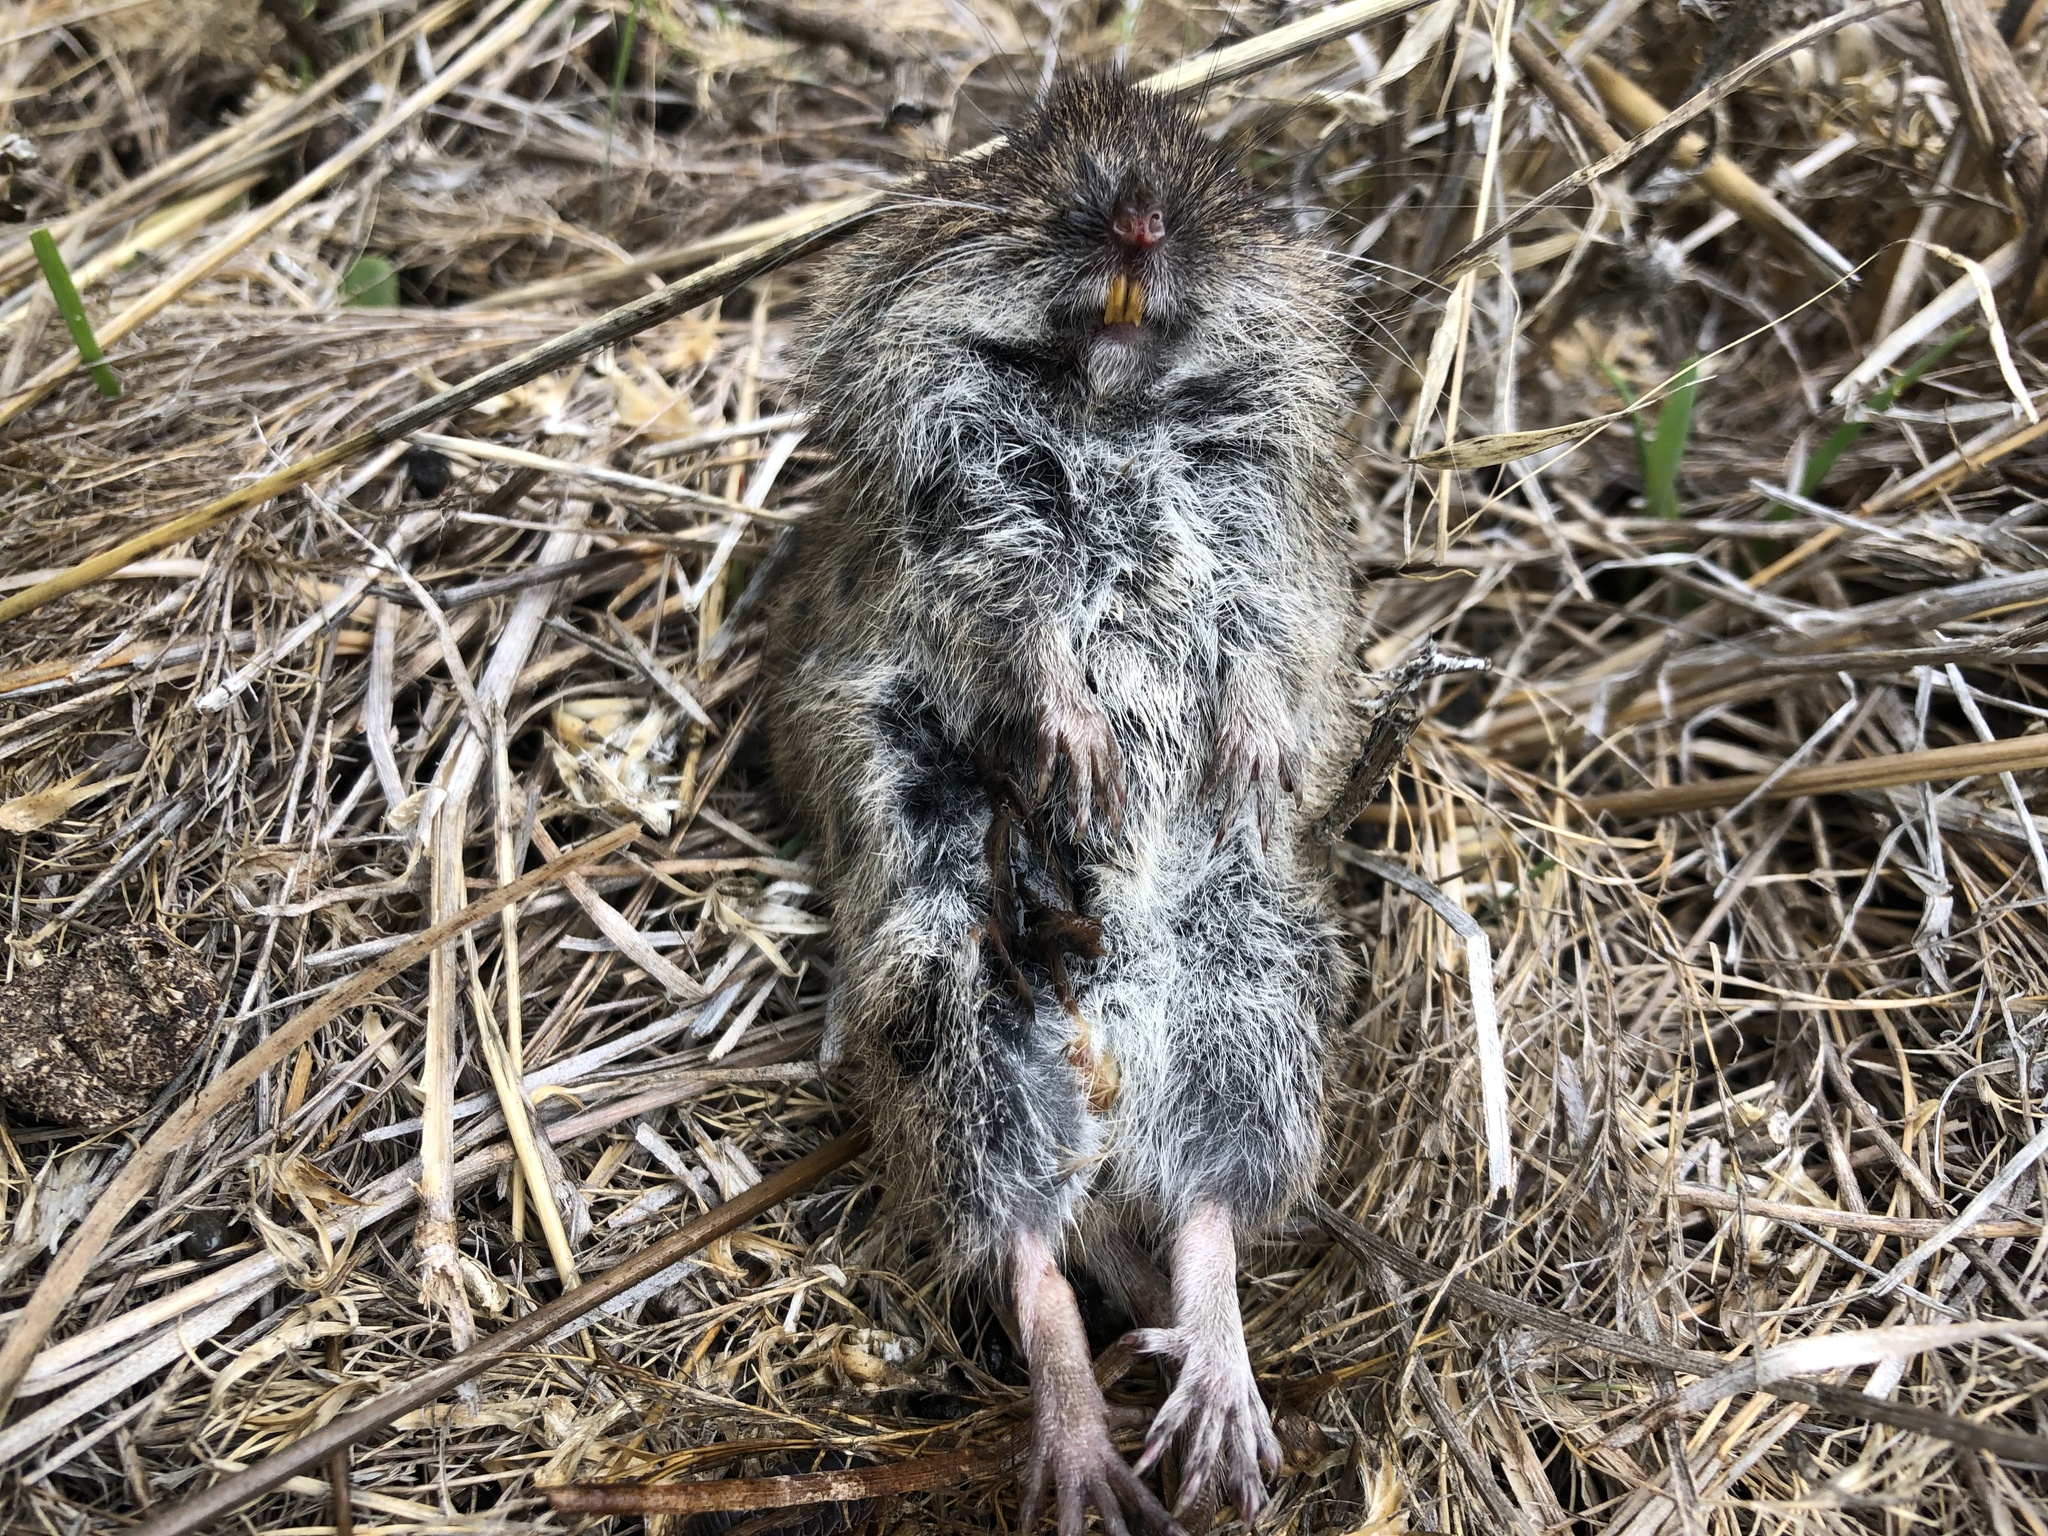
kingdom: Animalia
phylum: Chordata
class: Mammalia
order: Rodentia
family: Cricetidae
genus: Microtus
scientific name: Microtus californicus
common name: California vole
